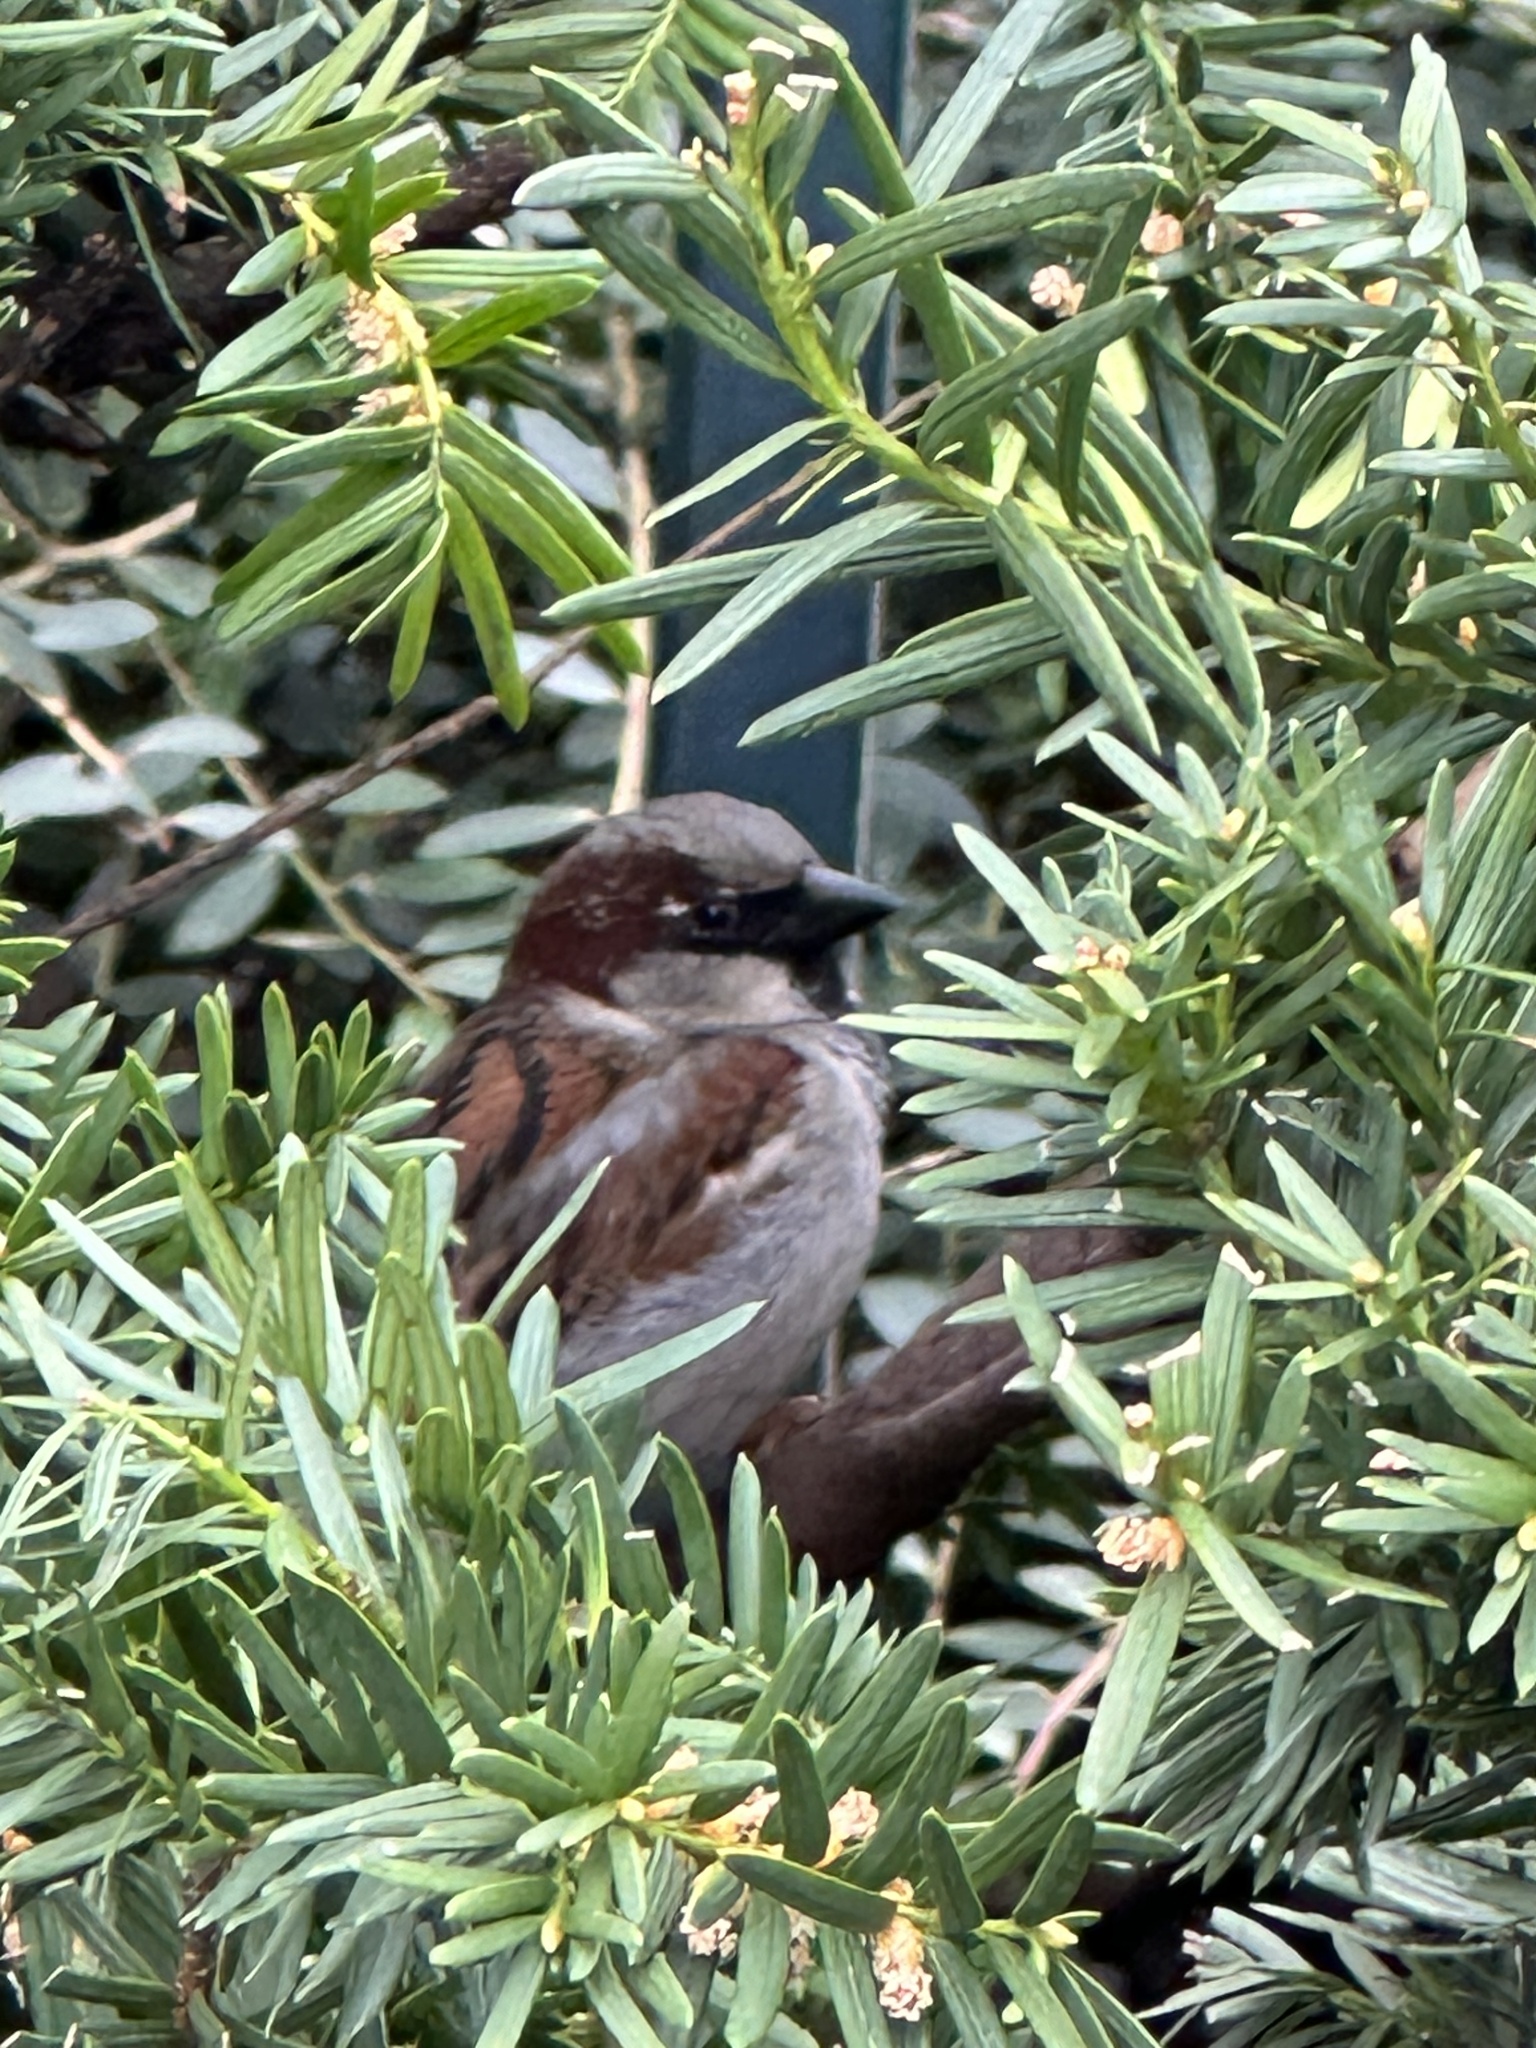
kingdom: Animalia
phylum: Chordata
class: Aves
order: Passeriformes
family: Passeridae
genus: Passer
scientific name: Passer domesticus
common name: House sparrow
